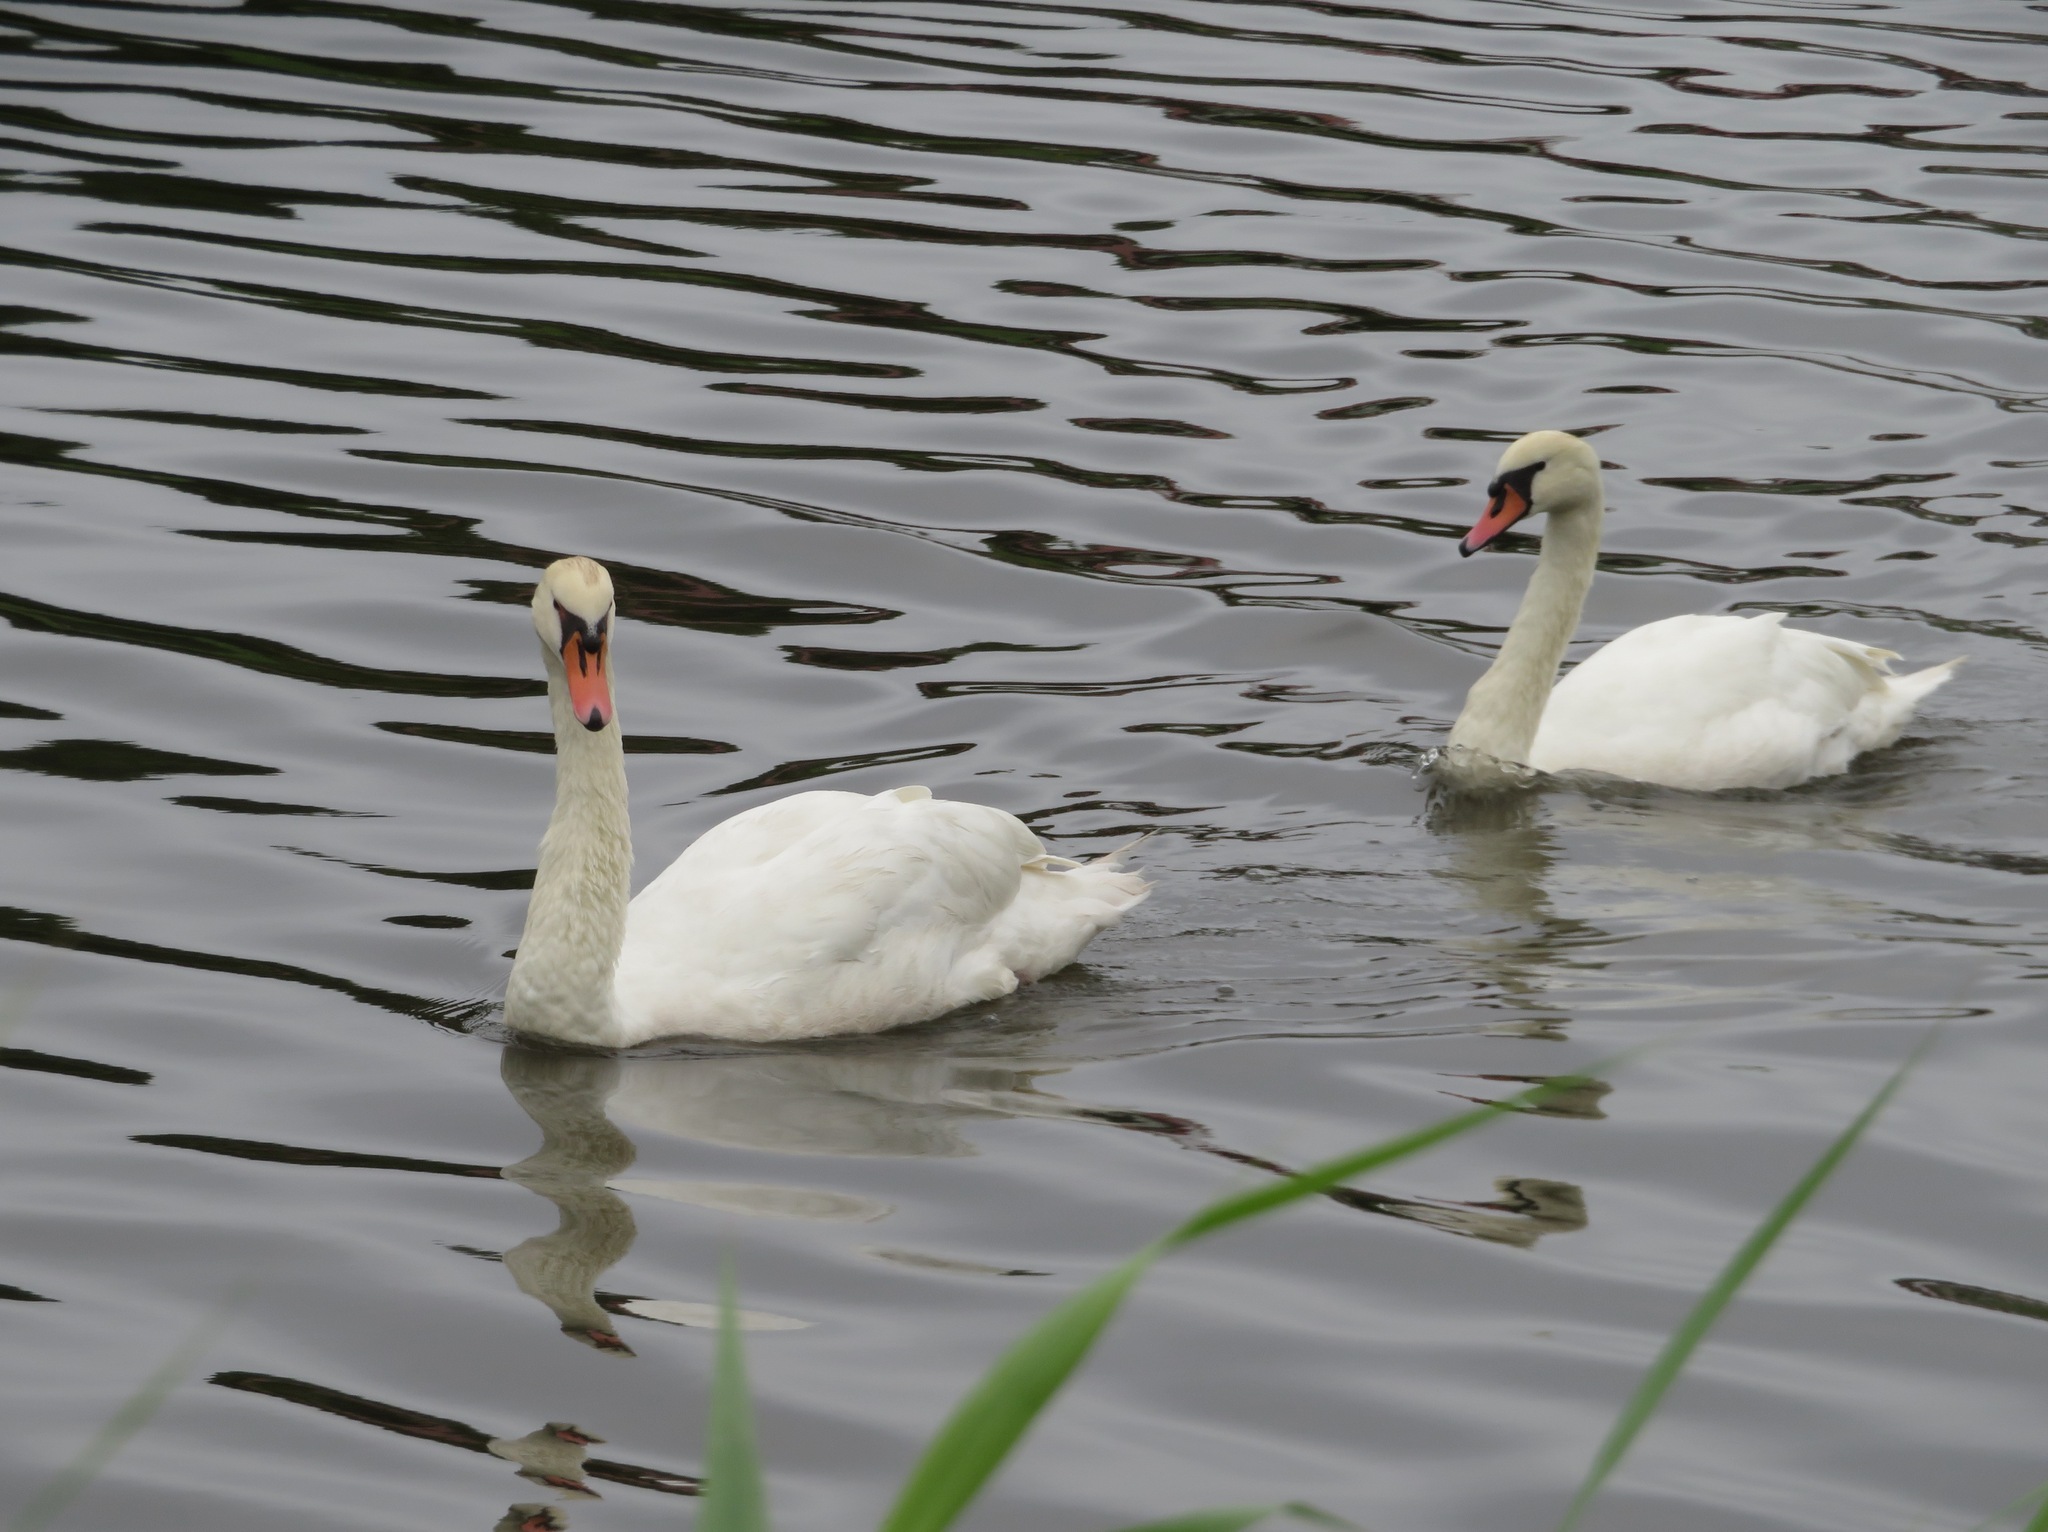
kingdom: Animalia
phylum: Chordata
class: Aves
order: Anseriformes
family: Anatidae
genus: Cygnus
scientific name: Cygnus olor
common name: Mute swan
